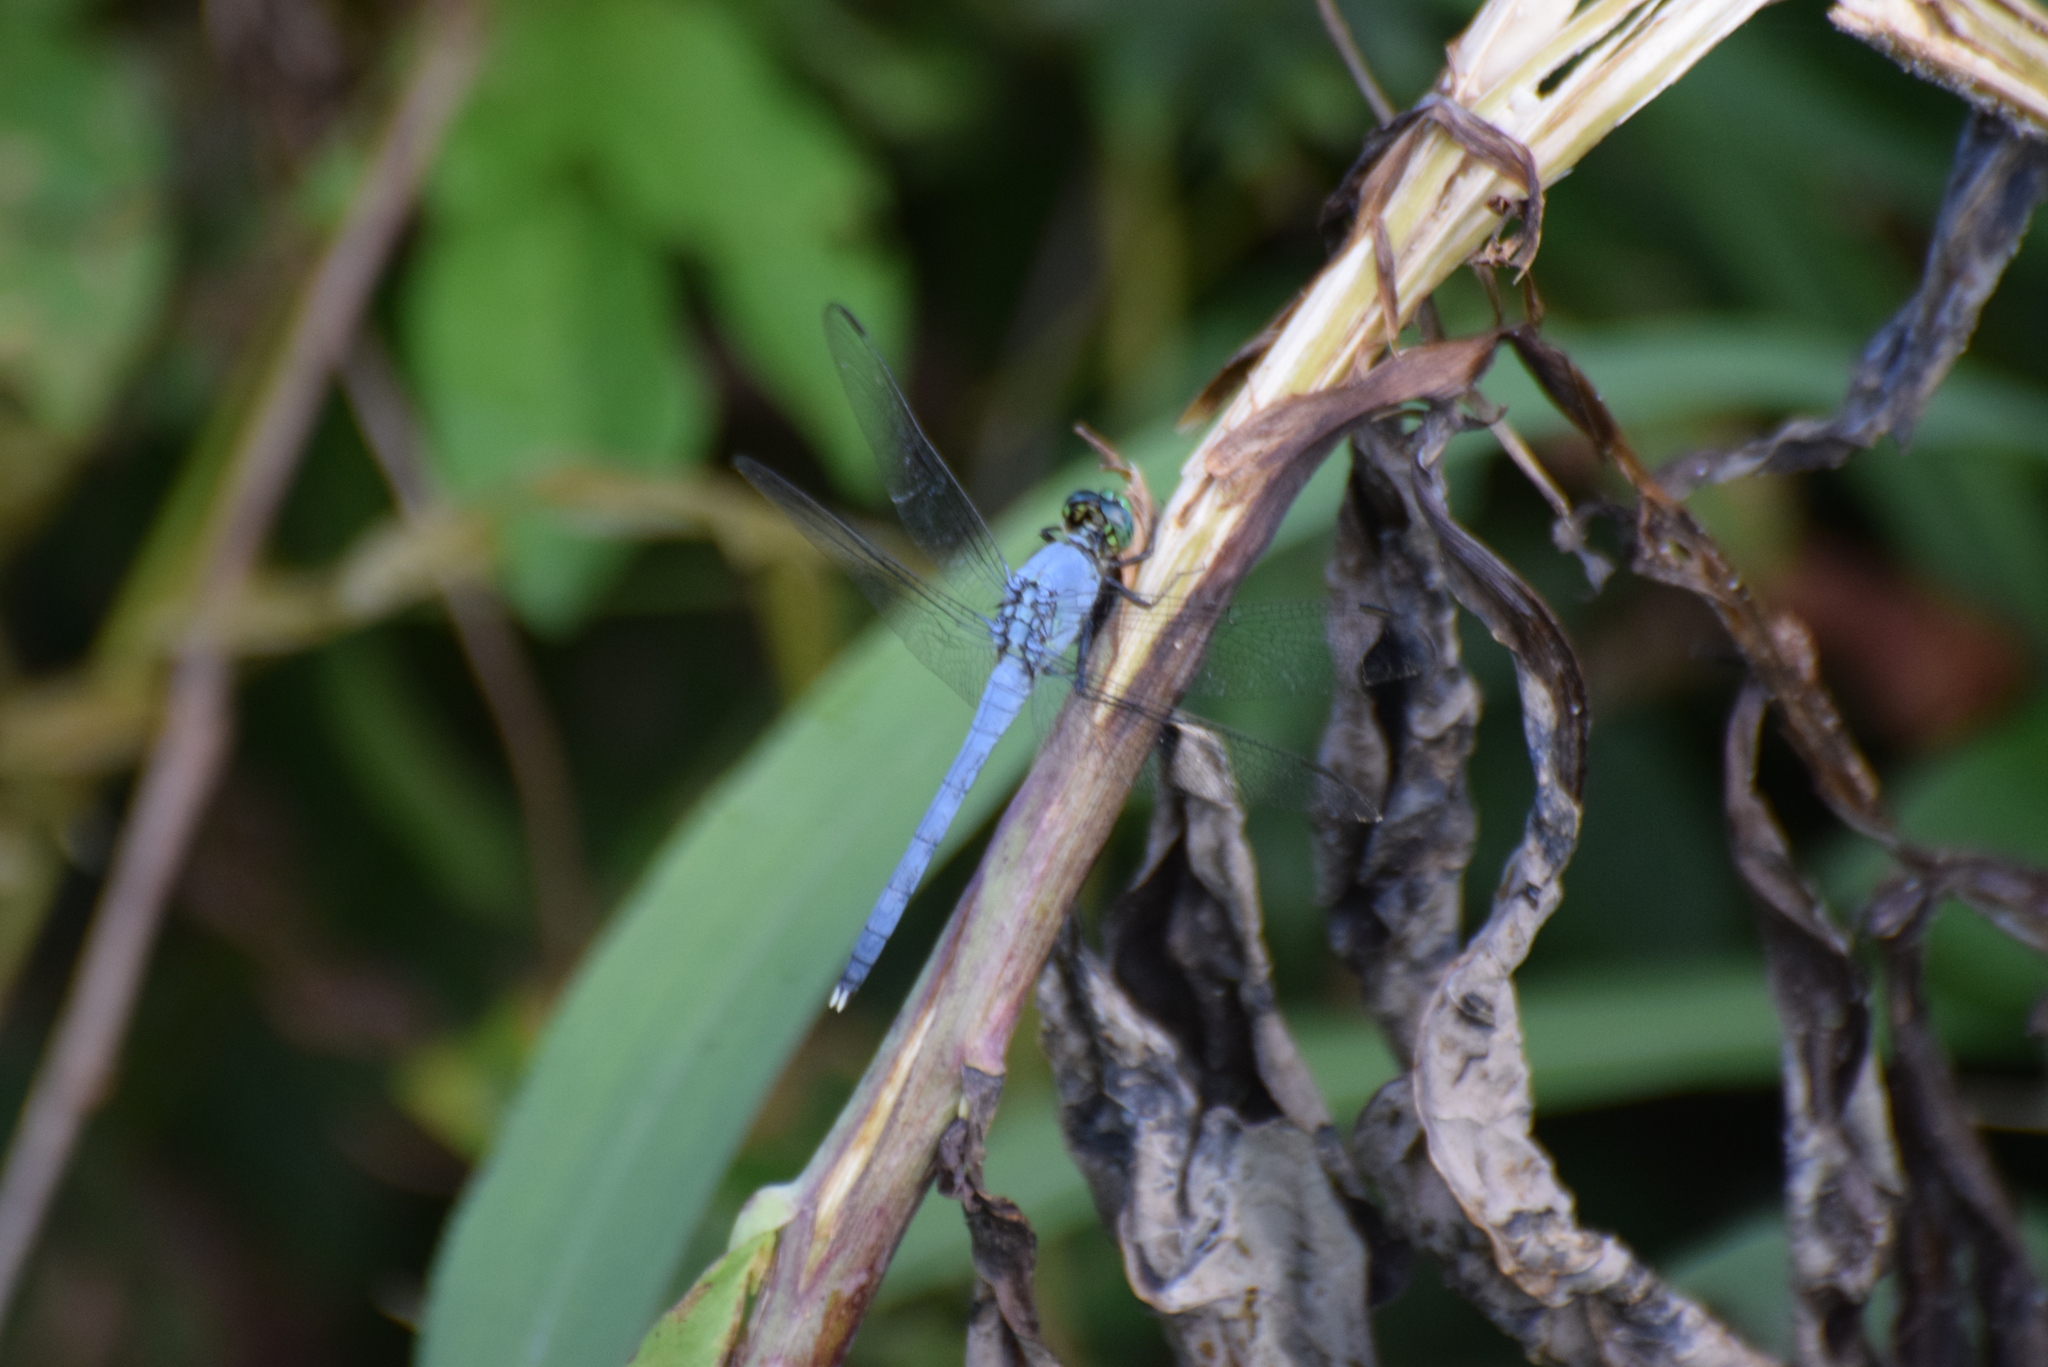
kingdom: Animalia
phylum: Arthropoda
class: Insecta
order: Odonata
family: Libellulidae
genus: Erythemis
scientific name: Erythemis simplicicollis
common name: Eastern pondhawk
